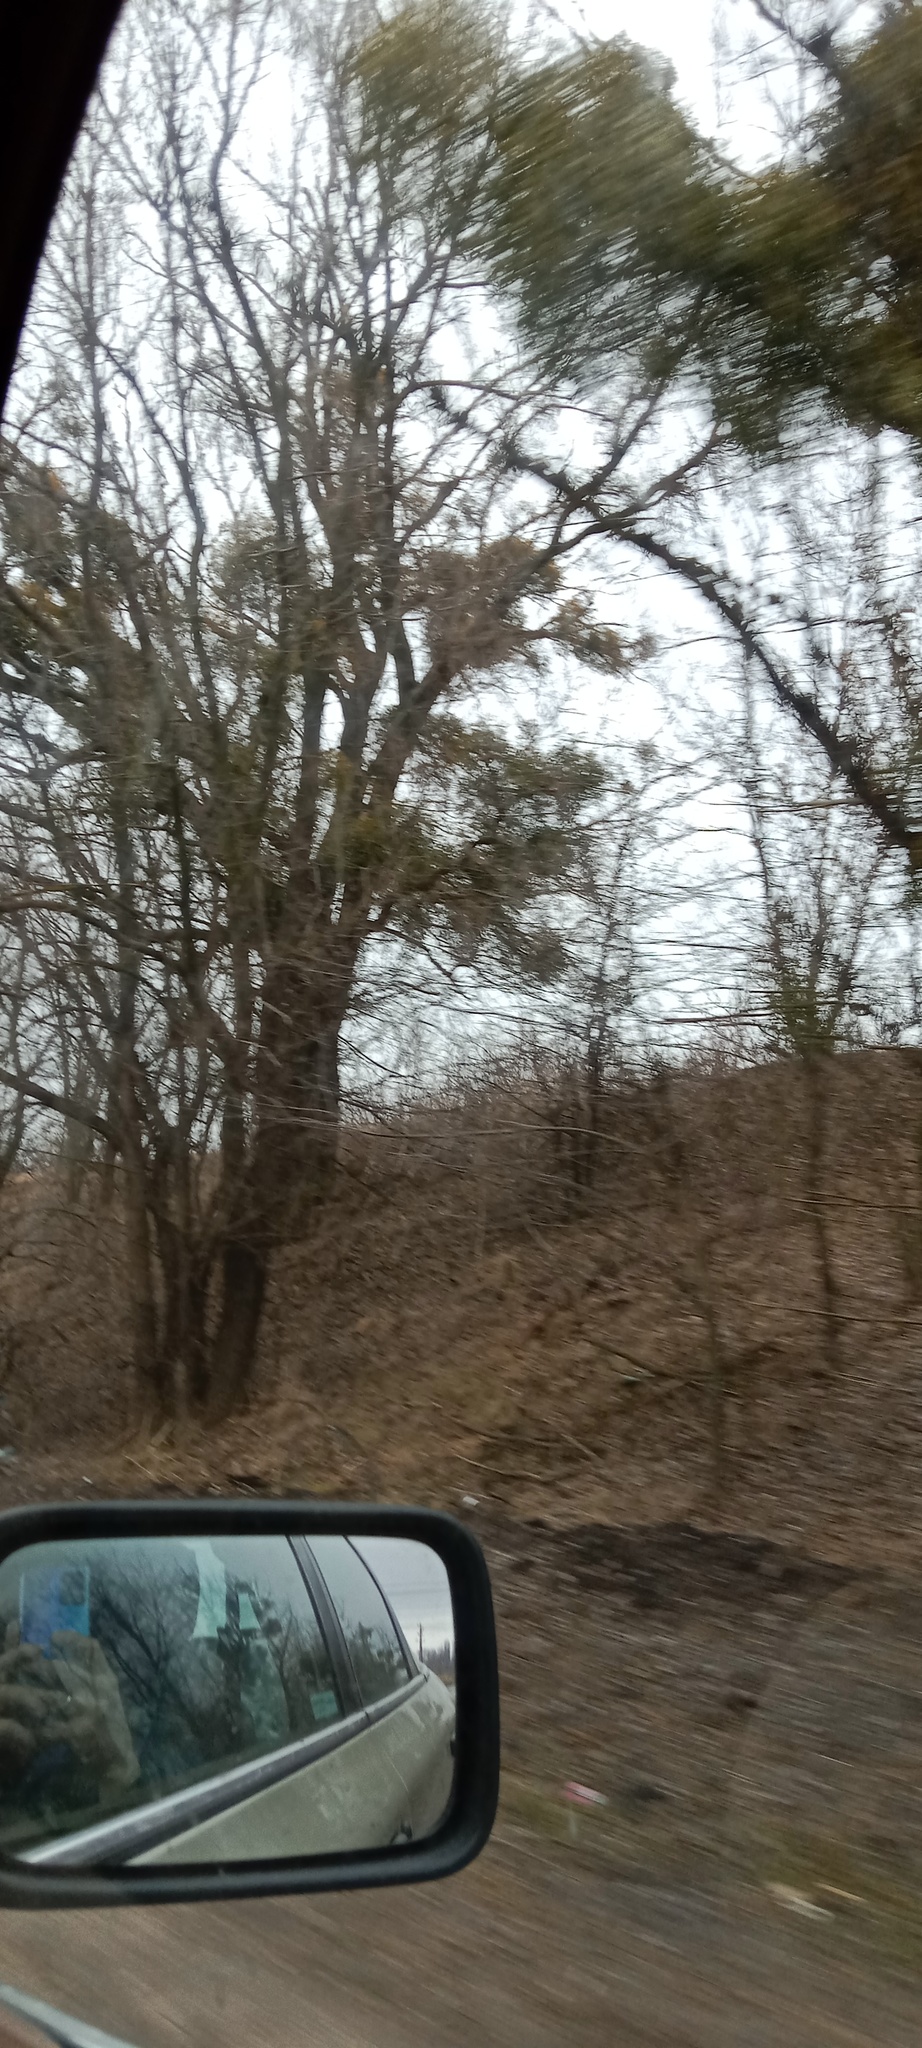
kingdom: Plantae
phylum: Tracheophyta
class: Magnoliopsida
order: Santalales
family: Viscaceae
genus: Viscum
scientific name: Viscum album
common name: Mistletoe
